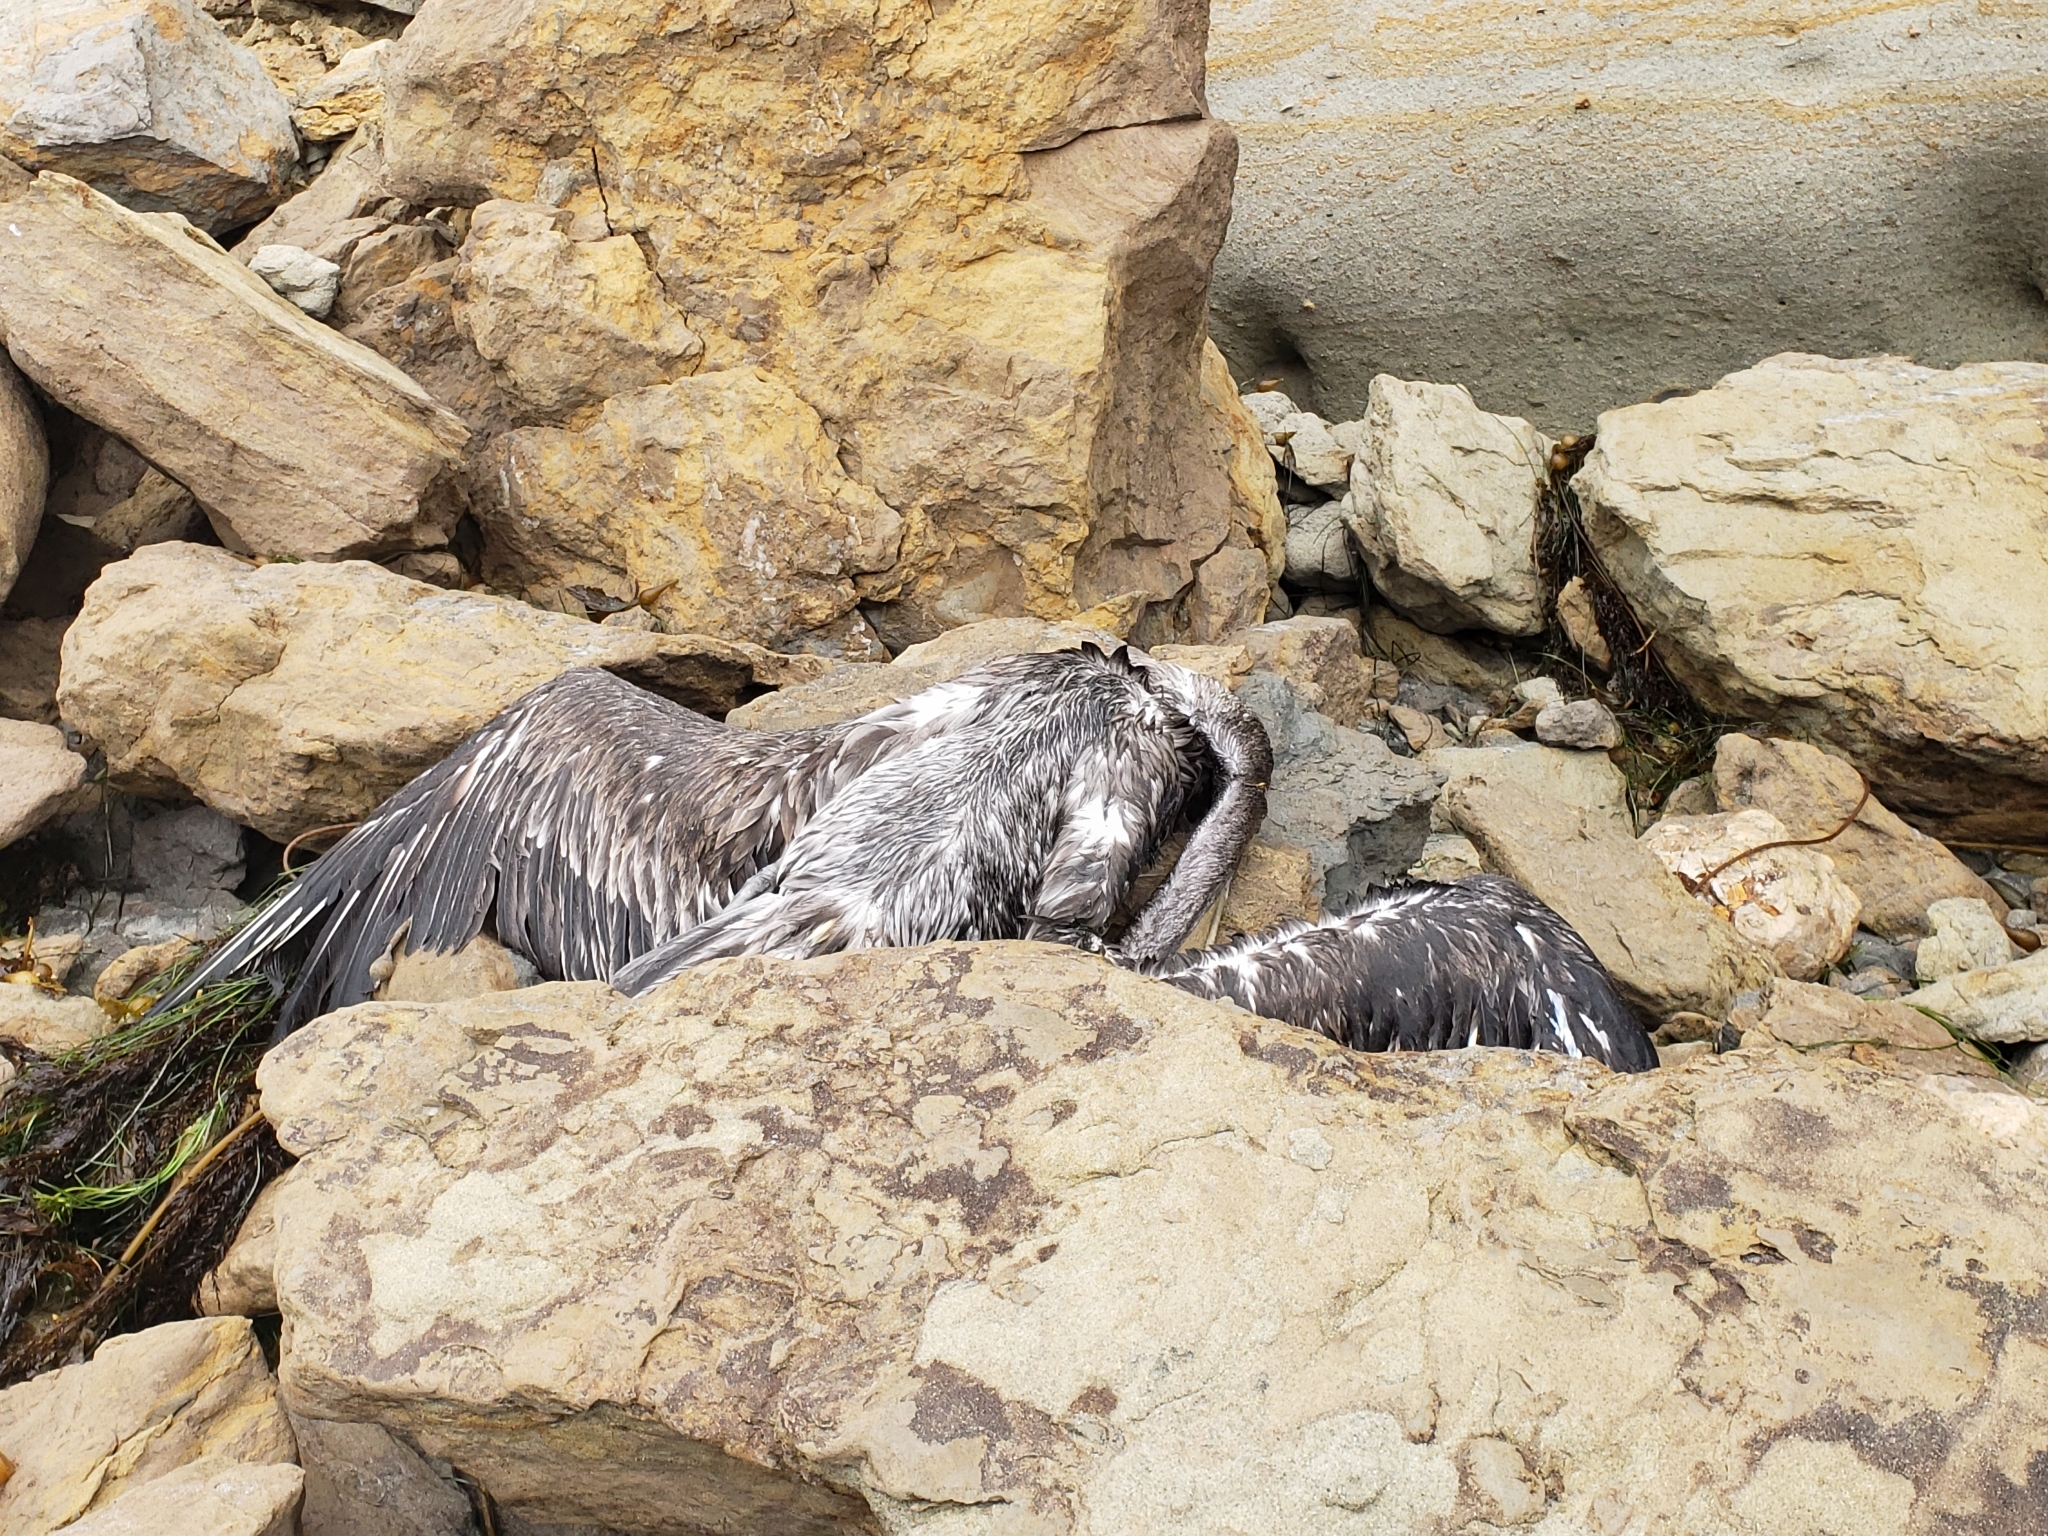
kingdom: Animalia
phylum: Chordata
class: Aves
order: Pelecaniformes
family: Pelecanidae
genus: Pelecanus
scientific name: Pelecanus occidentalis
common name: Brown pelican
